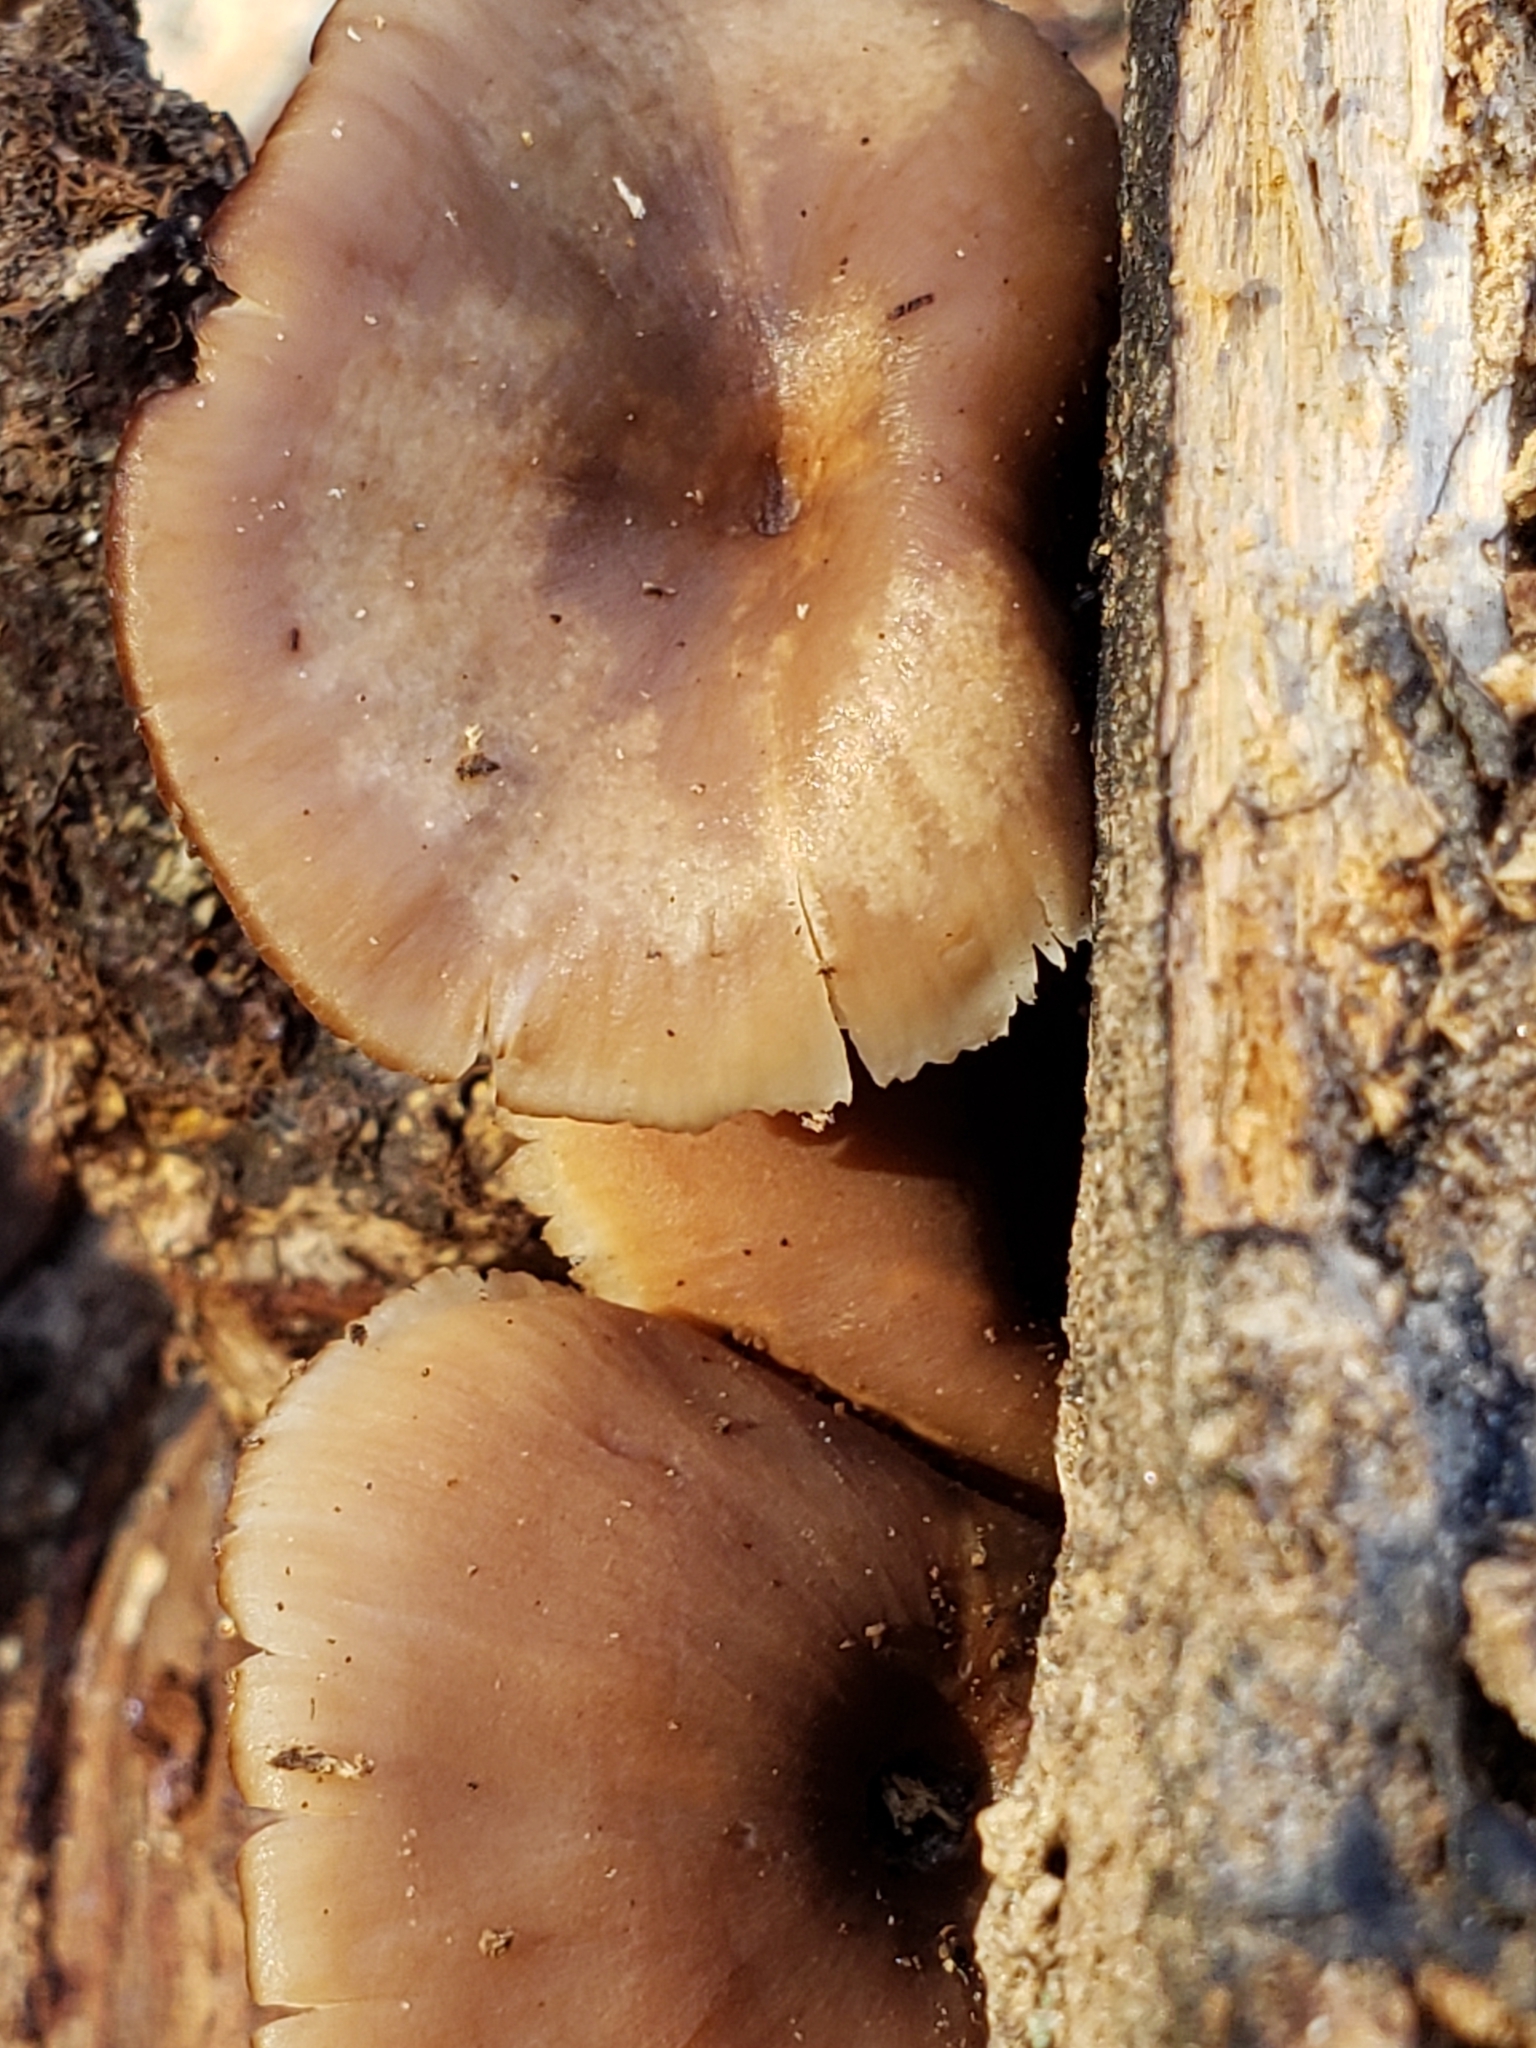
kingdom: Fungi
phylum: Basidiomycota
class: Agaricomycetes
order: Russulales
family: Auriscalpiaceae
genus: Lentinellus
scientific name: Lentinellus ursinus
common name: Bear lentinus
